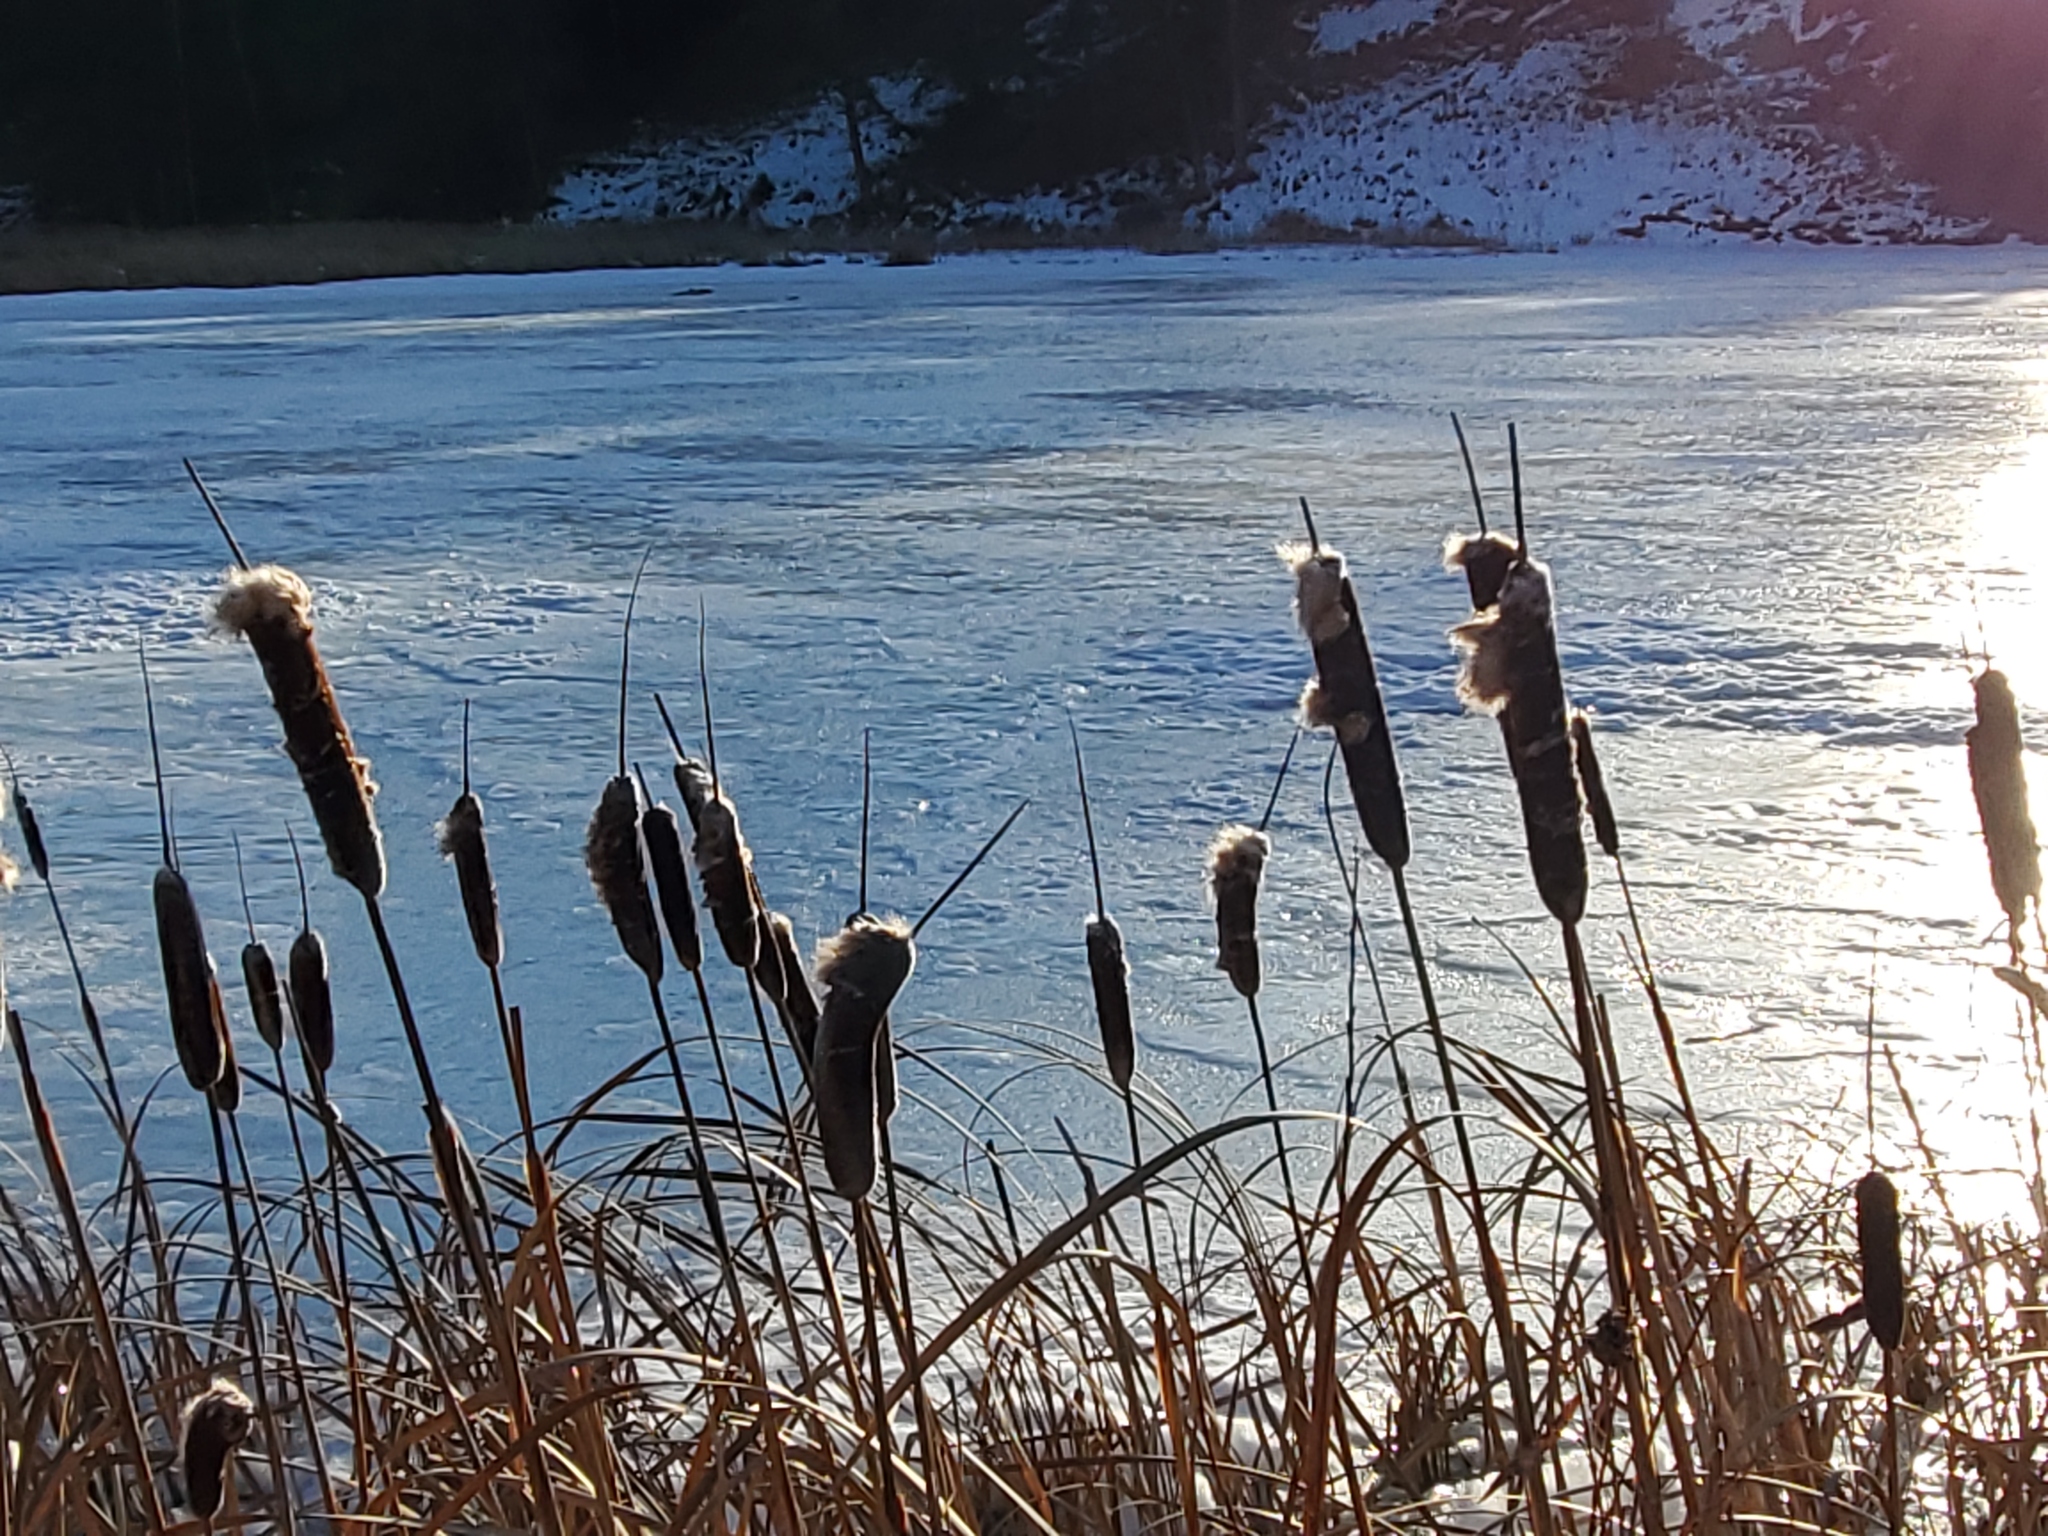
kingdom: Plantae
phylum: Tracheophyta
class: Liliopsida
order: Poales
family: Typhaceae
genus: Typha
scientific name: Typha latifolia
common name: Broadleaf cattail
